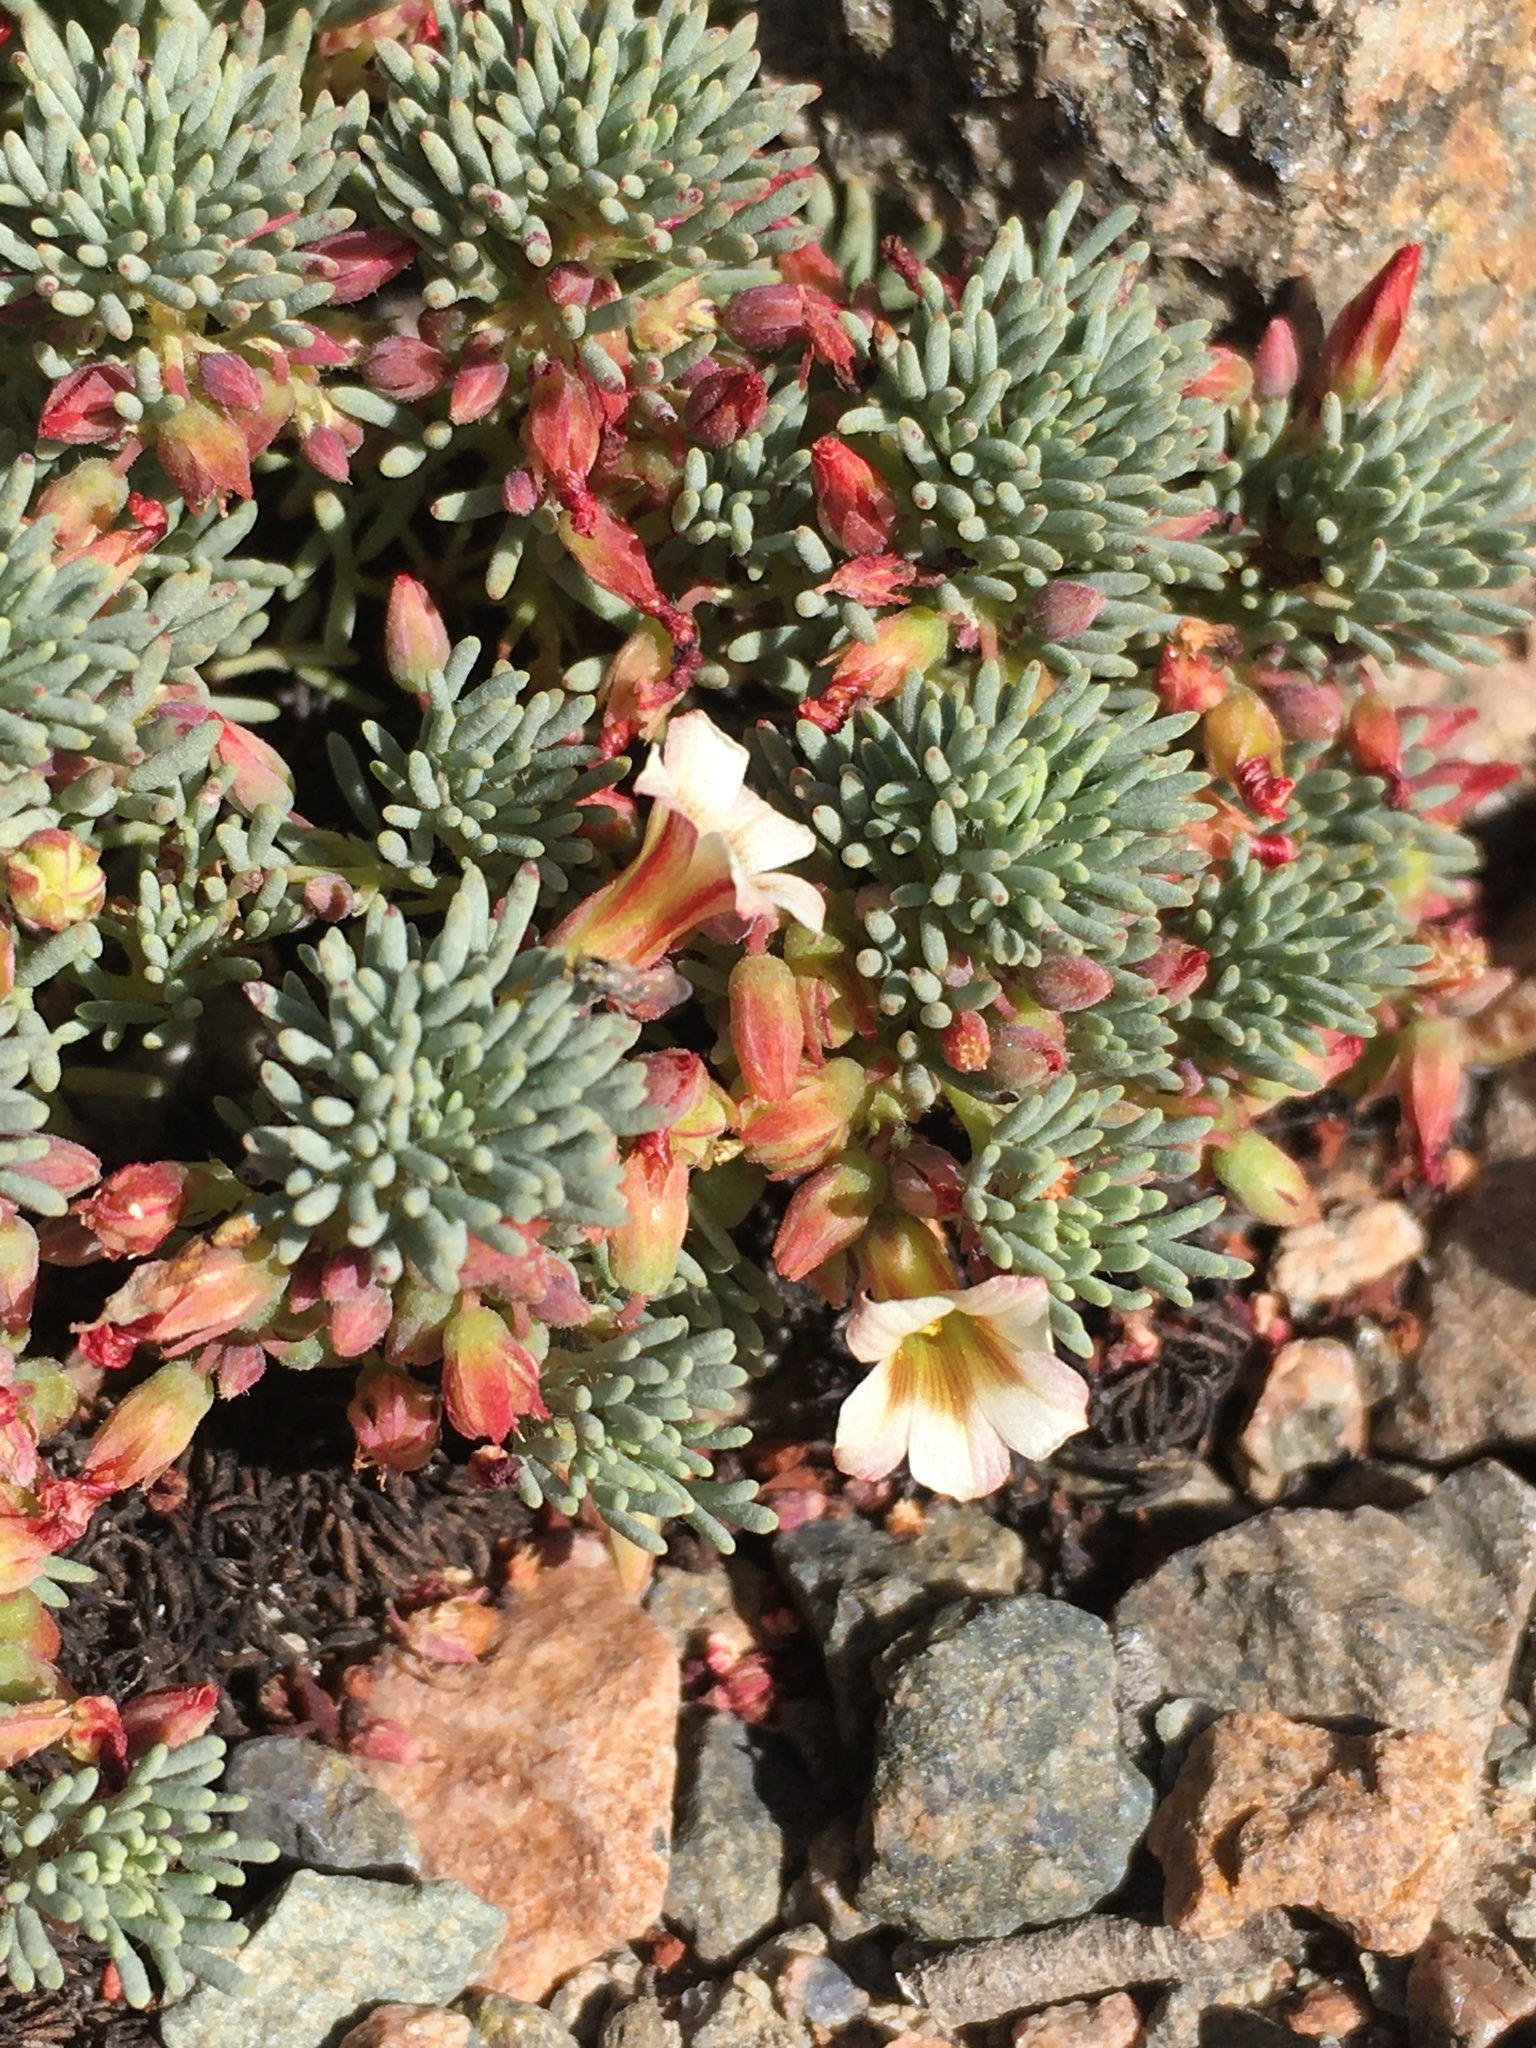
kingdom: Plantae
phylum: Tracheophyta
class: Magnoliopsida
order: Oxalidales
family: Oxalidaceae
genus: Oxalis
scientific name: Oxalis caesia
